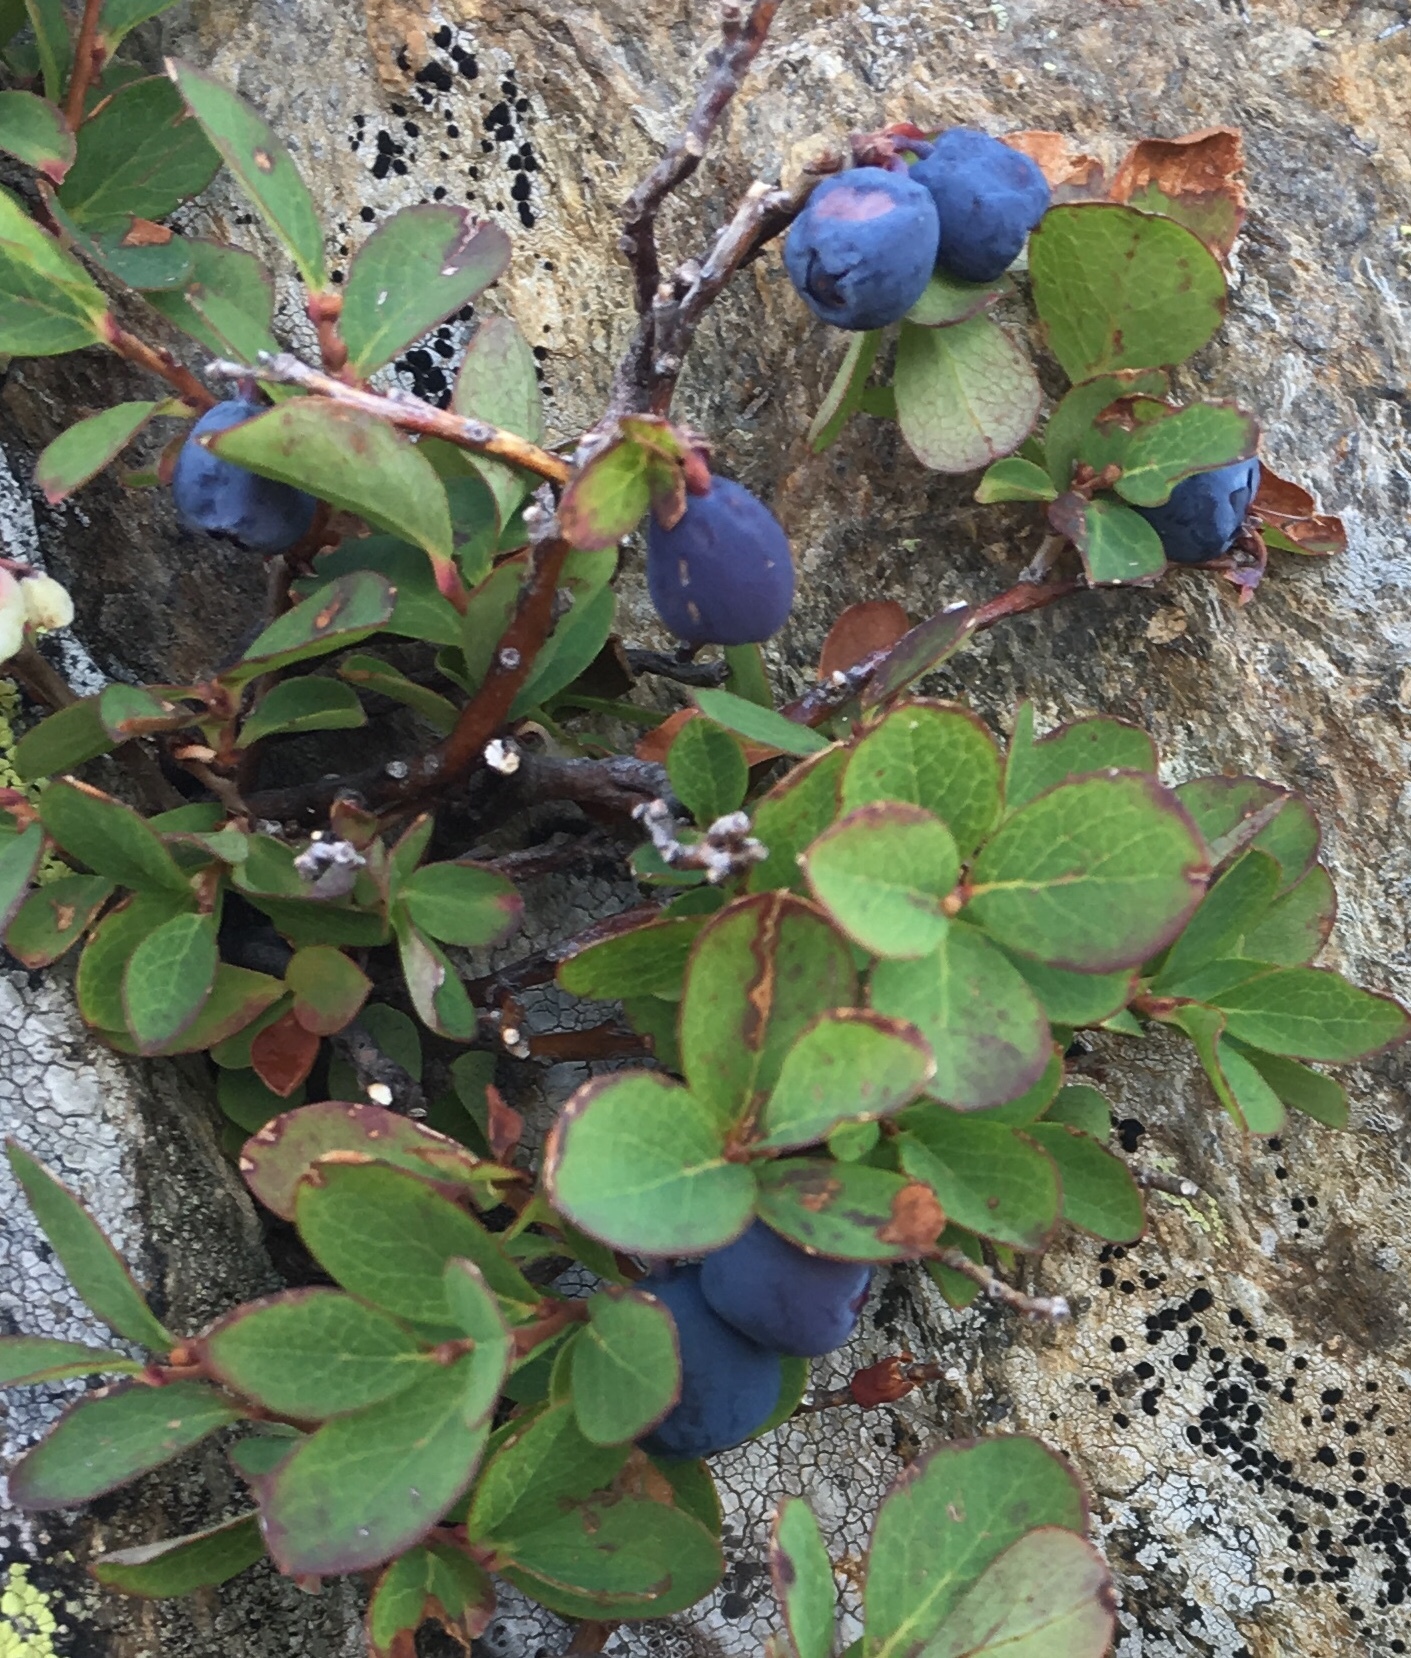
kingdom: Plantae
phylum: Tracheophyta
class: Magnoliopsida
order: Ericales
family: Ericaceae
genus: Vaccinium
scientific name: Vaccinium uliginosum
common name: Bog bilberry
